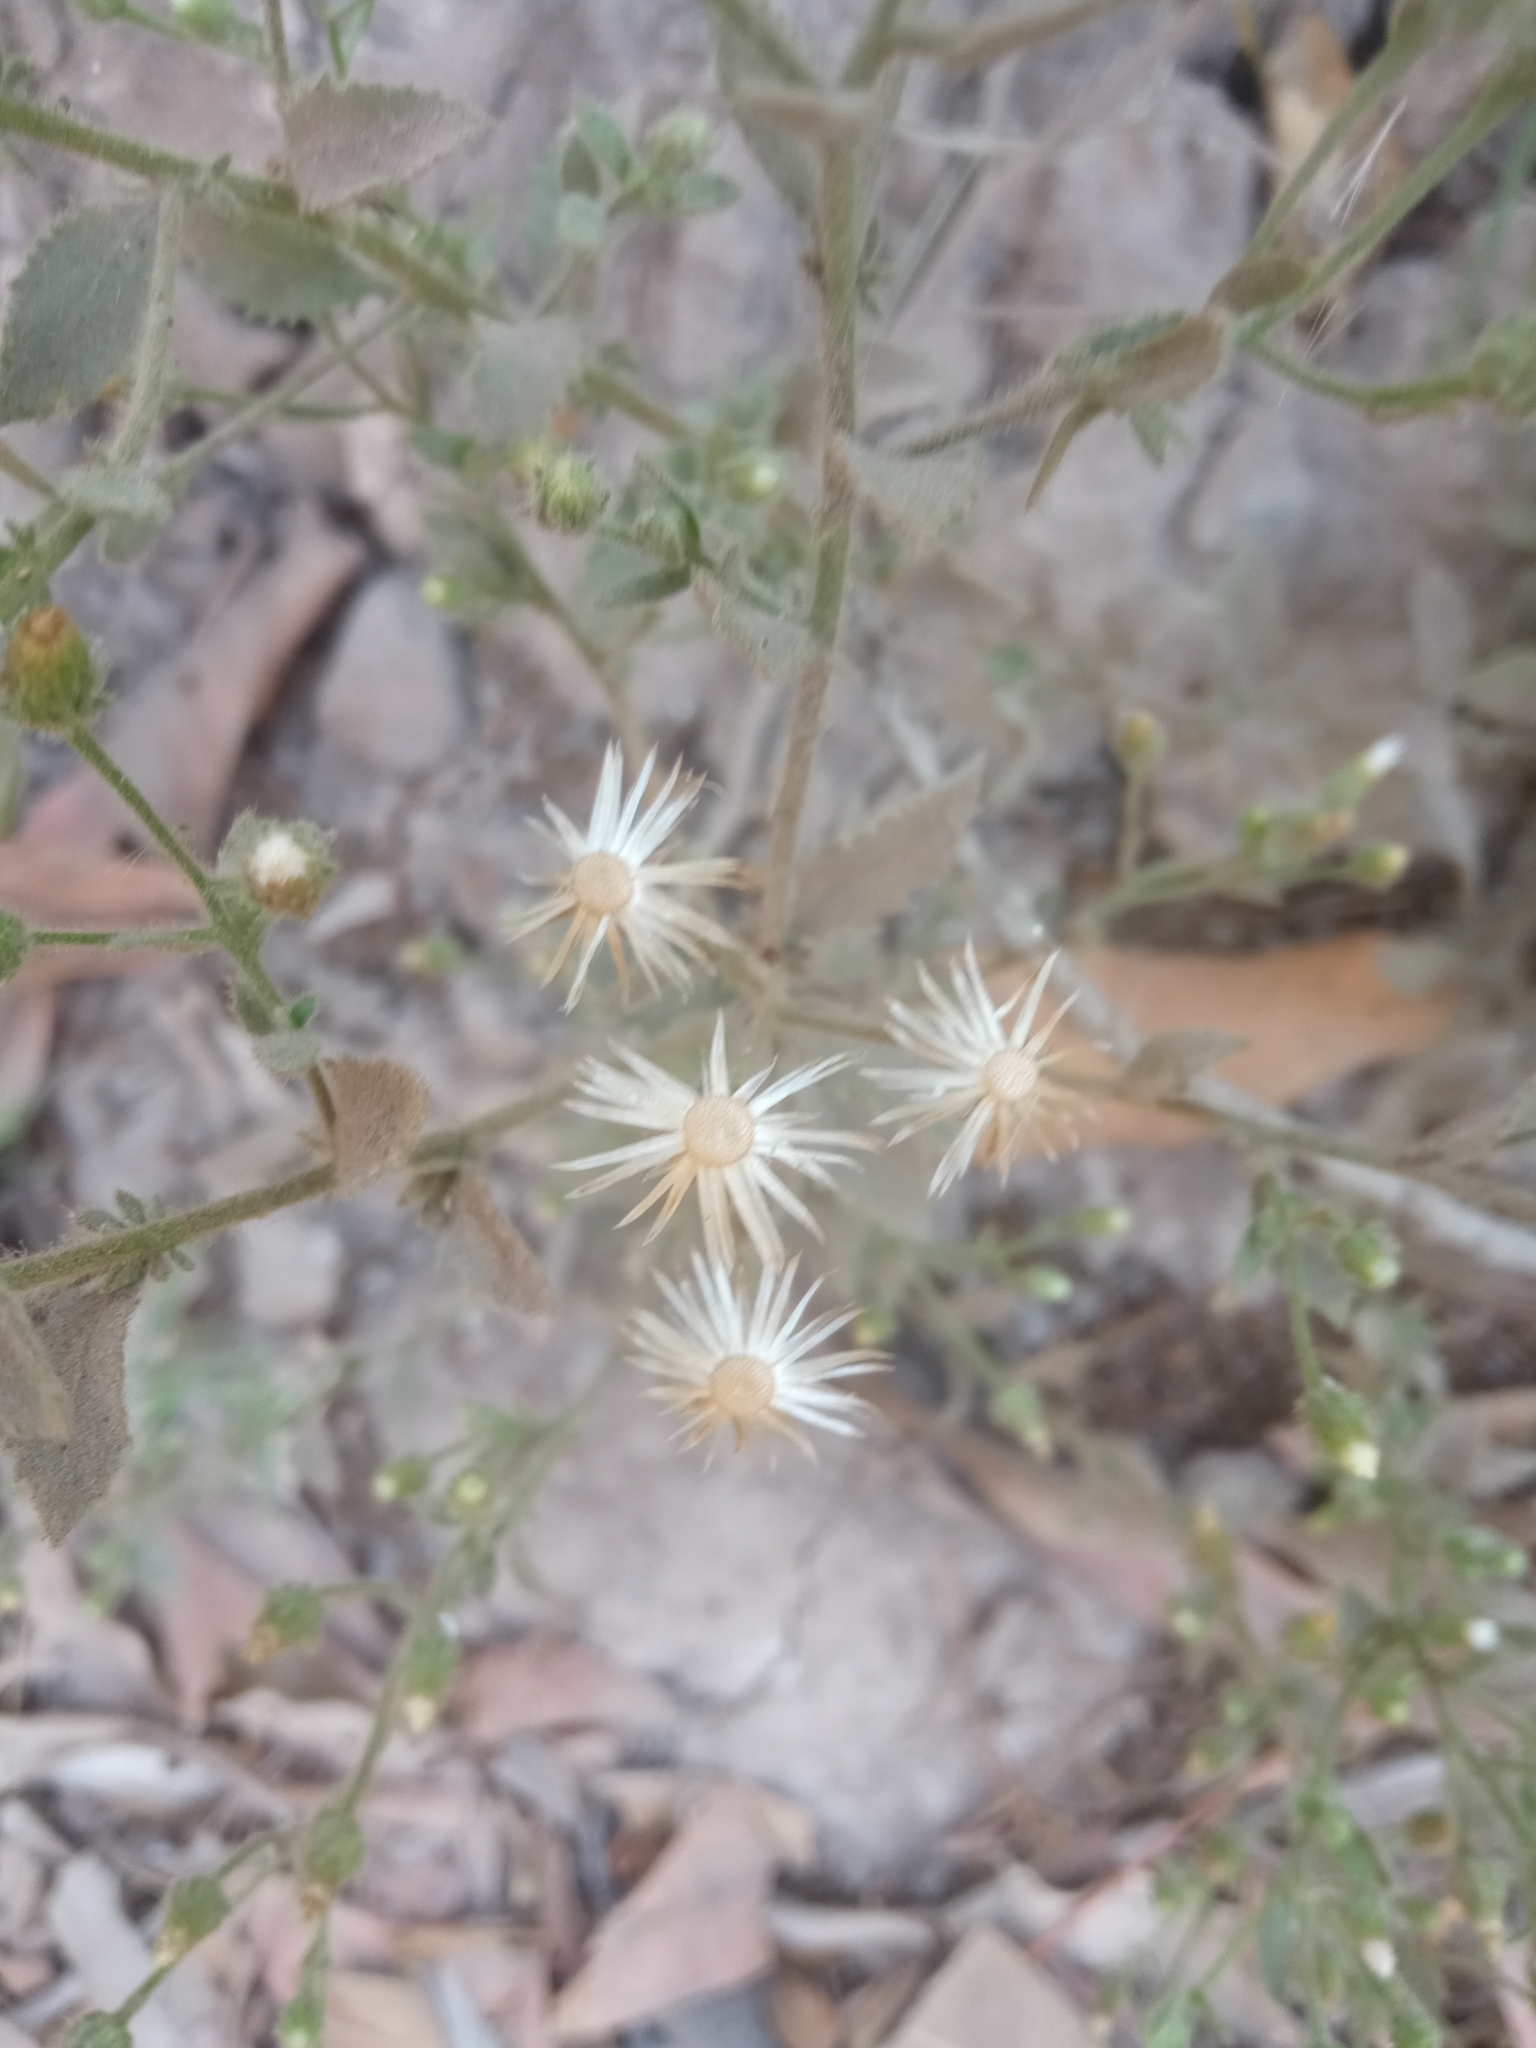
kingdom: Plantae
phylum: Tracheophyta
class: Magnoliopsida
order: Asterales
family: Asteraceae
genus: Pseudoconyza
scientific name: Pseudoconyza viscosa
